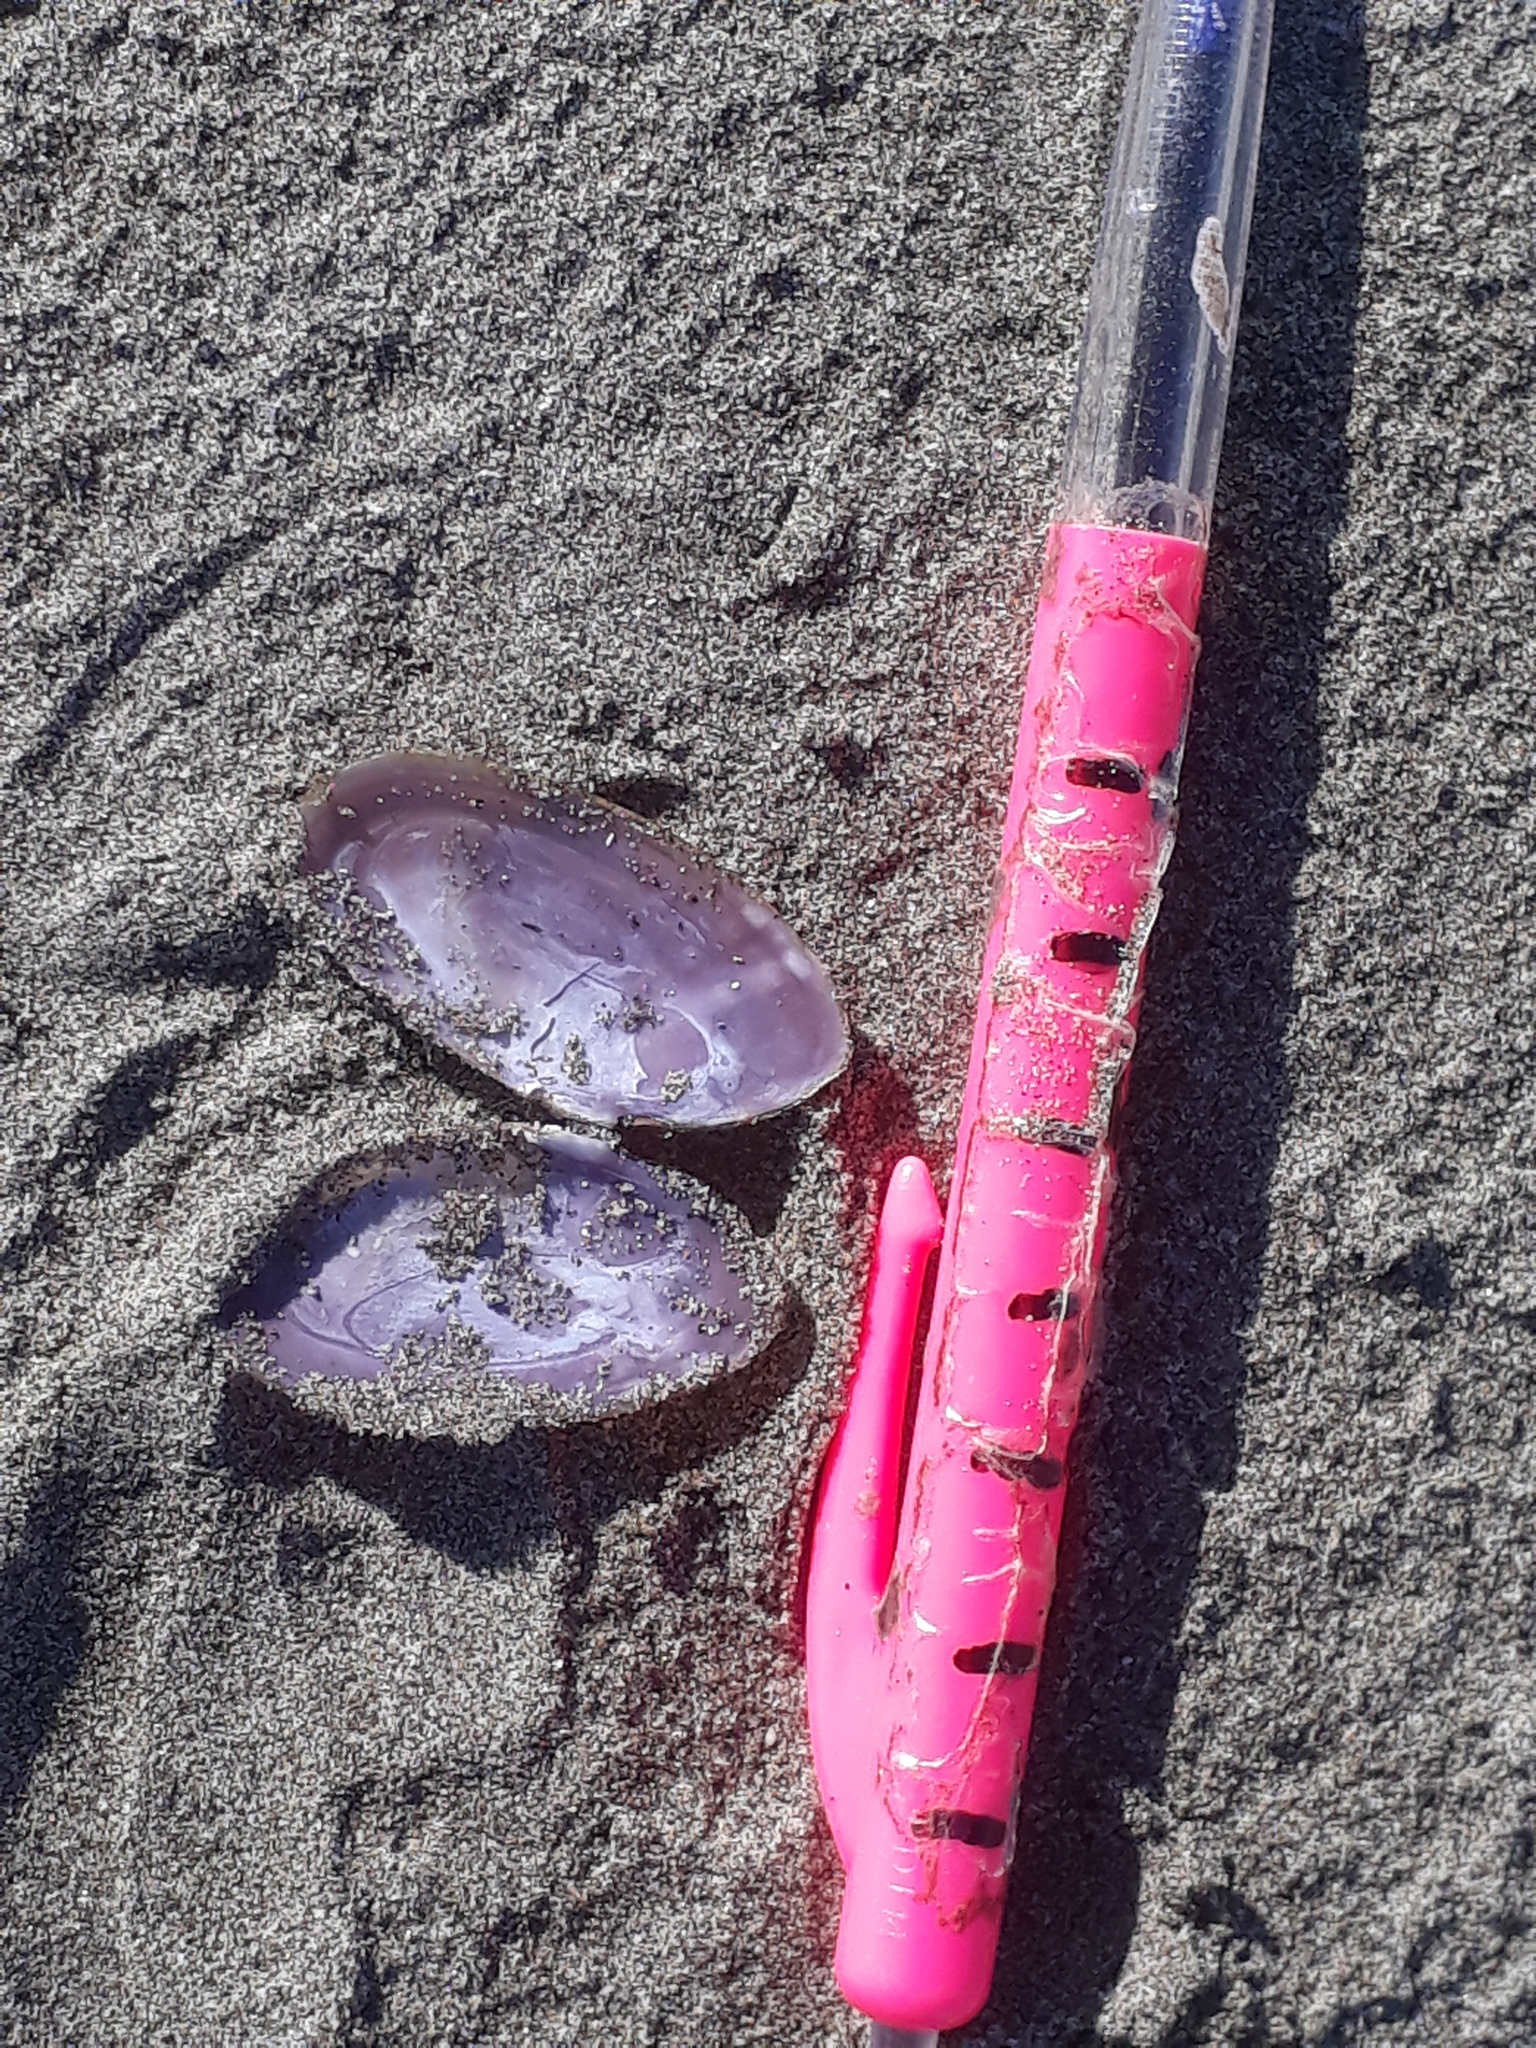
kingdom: Animalia
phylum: Mollusca
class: Bivalvia
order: Cardiida
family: Psammobiidae
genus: Hiatula
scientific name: Hiatula nitida
